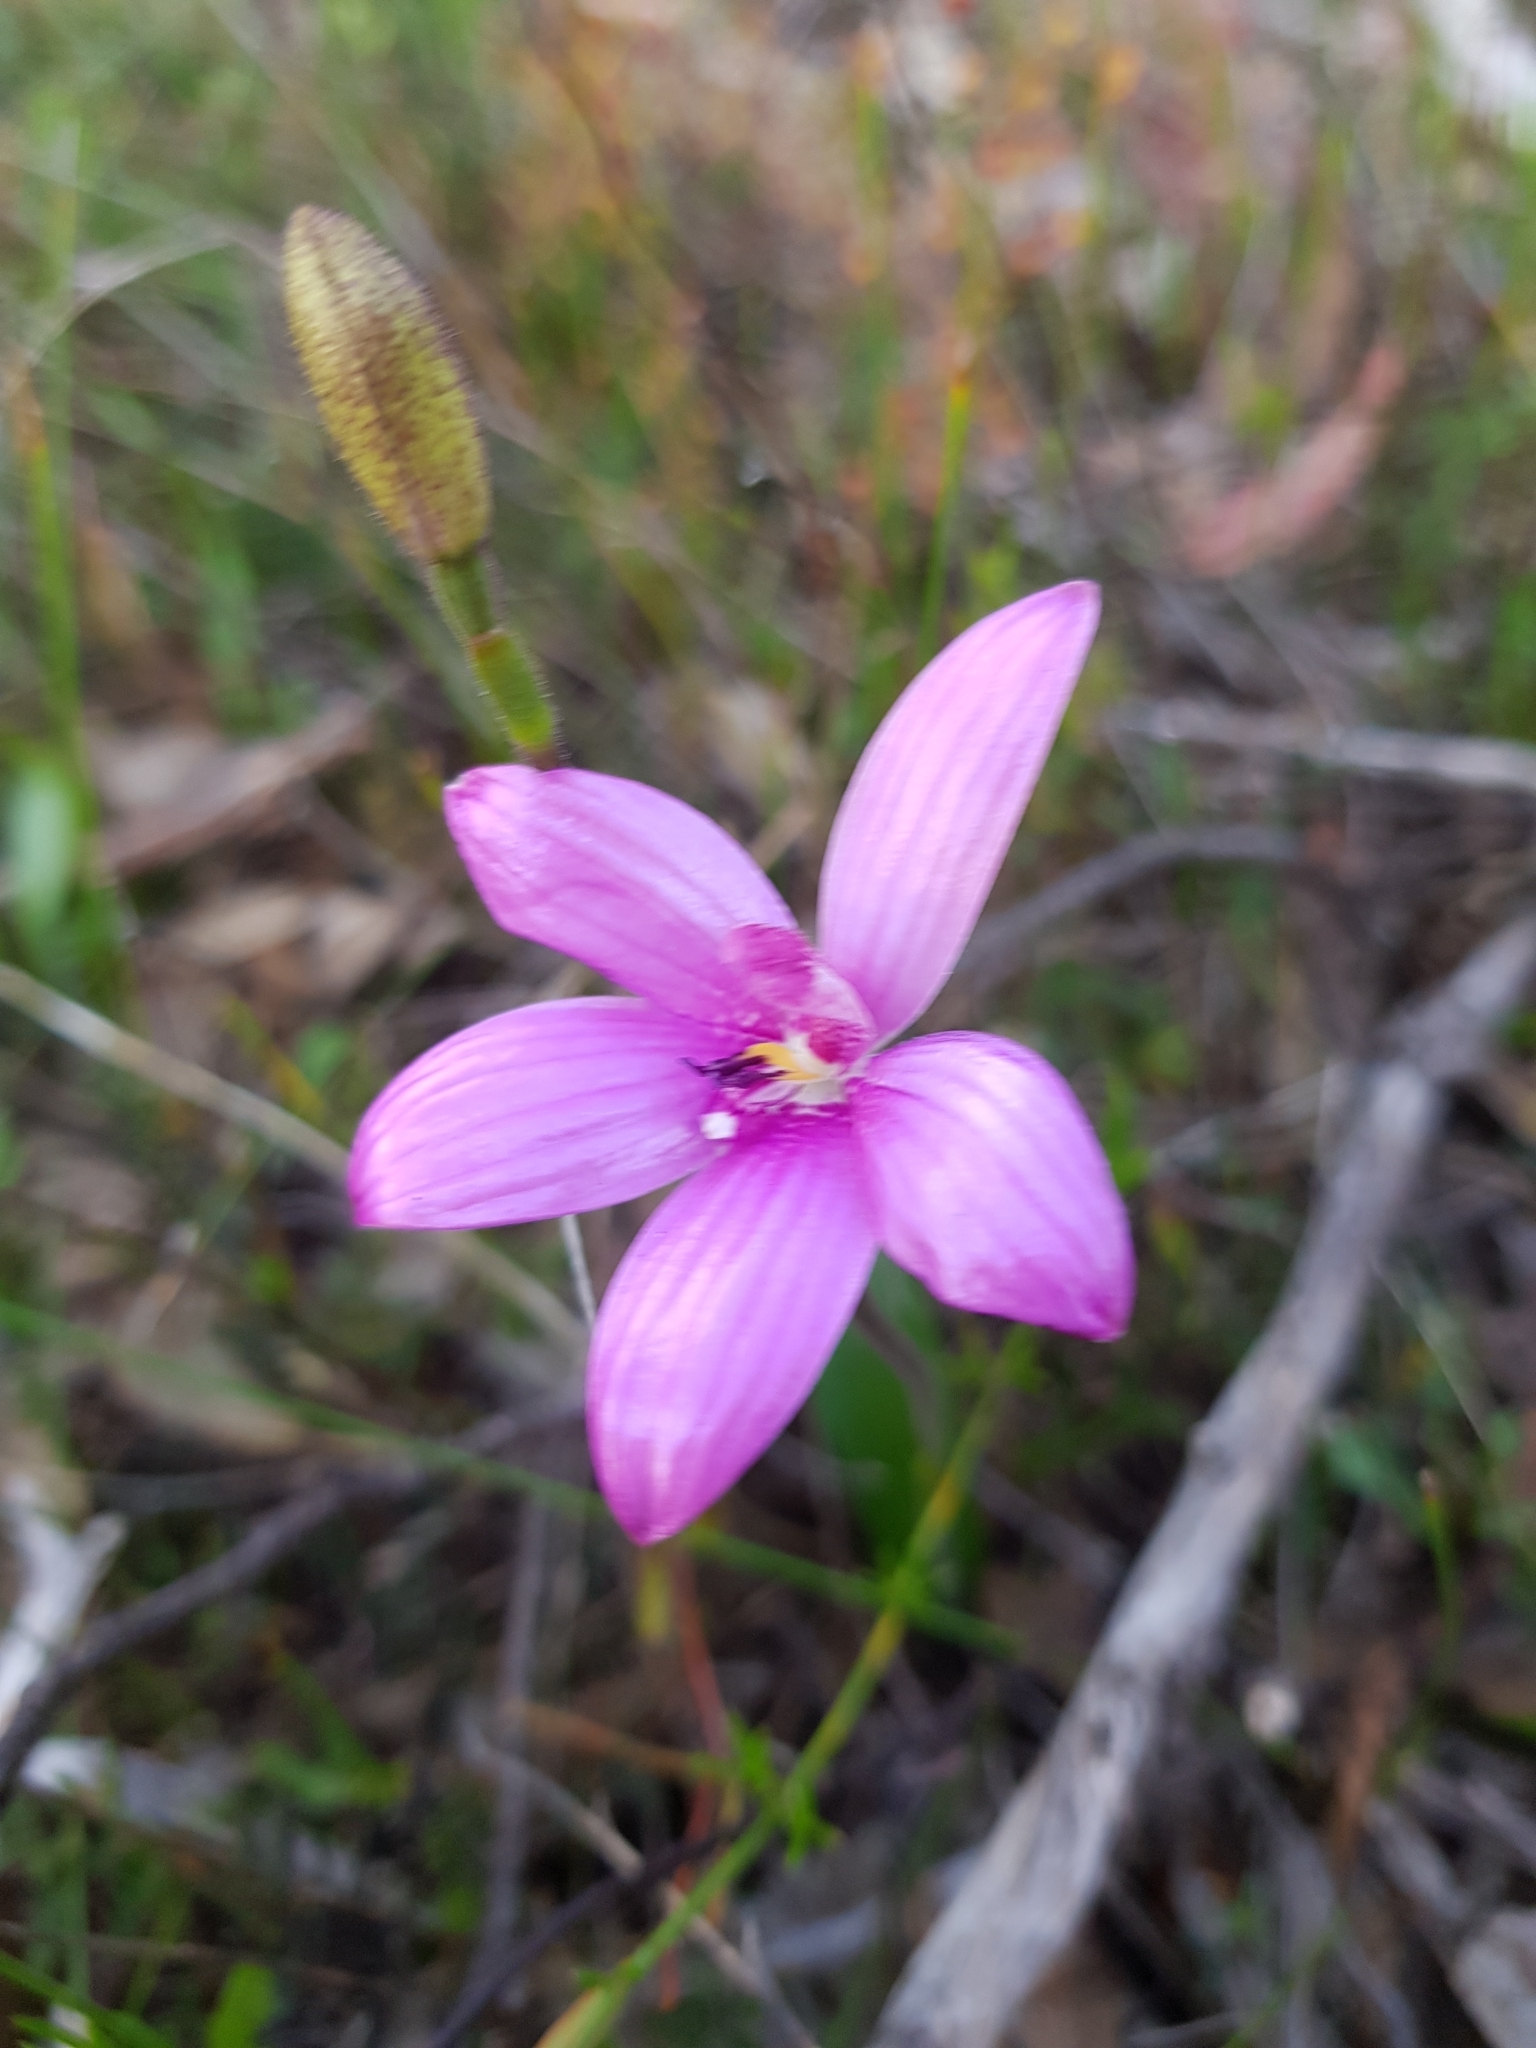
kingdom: Plantae
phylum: Tracheophyta
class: Liliopsida
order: Asparagales
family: Orchidaceae
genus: Caladenia
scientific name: Caladenia emarginata
